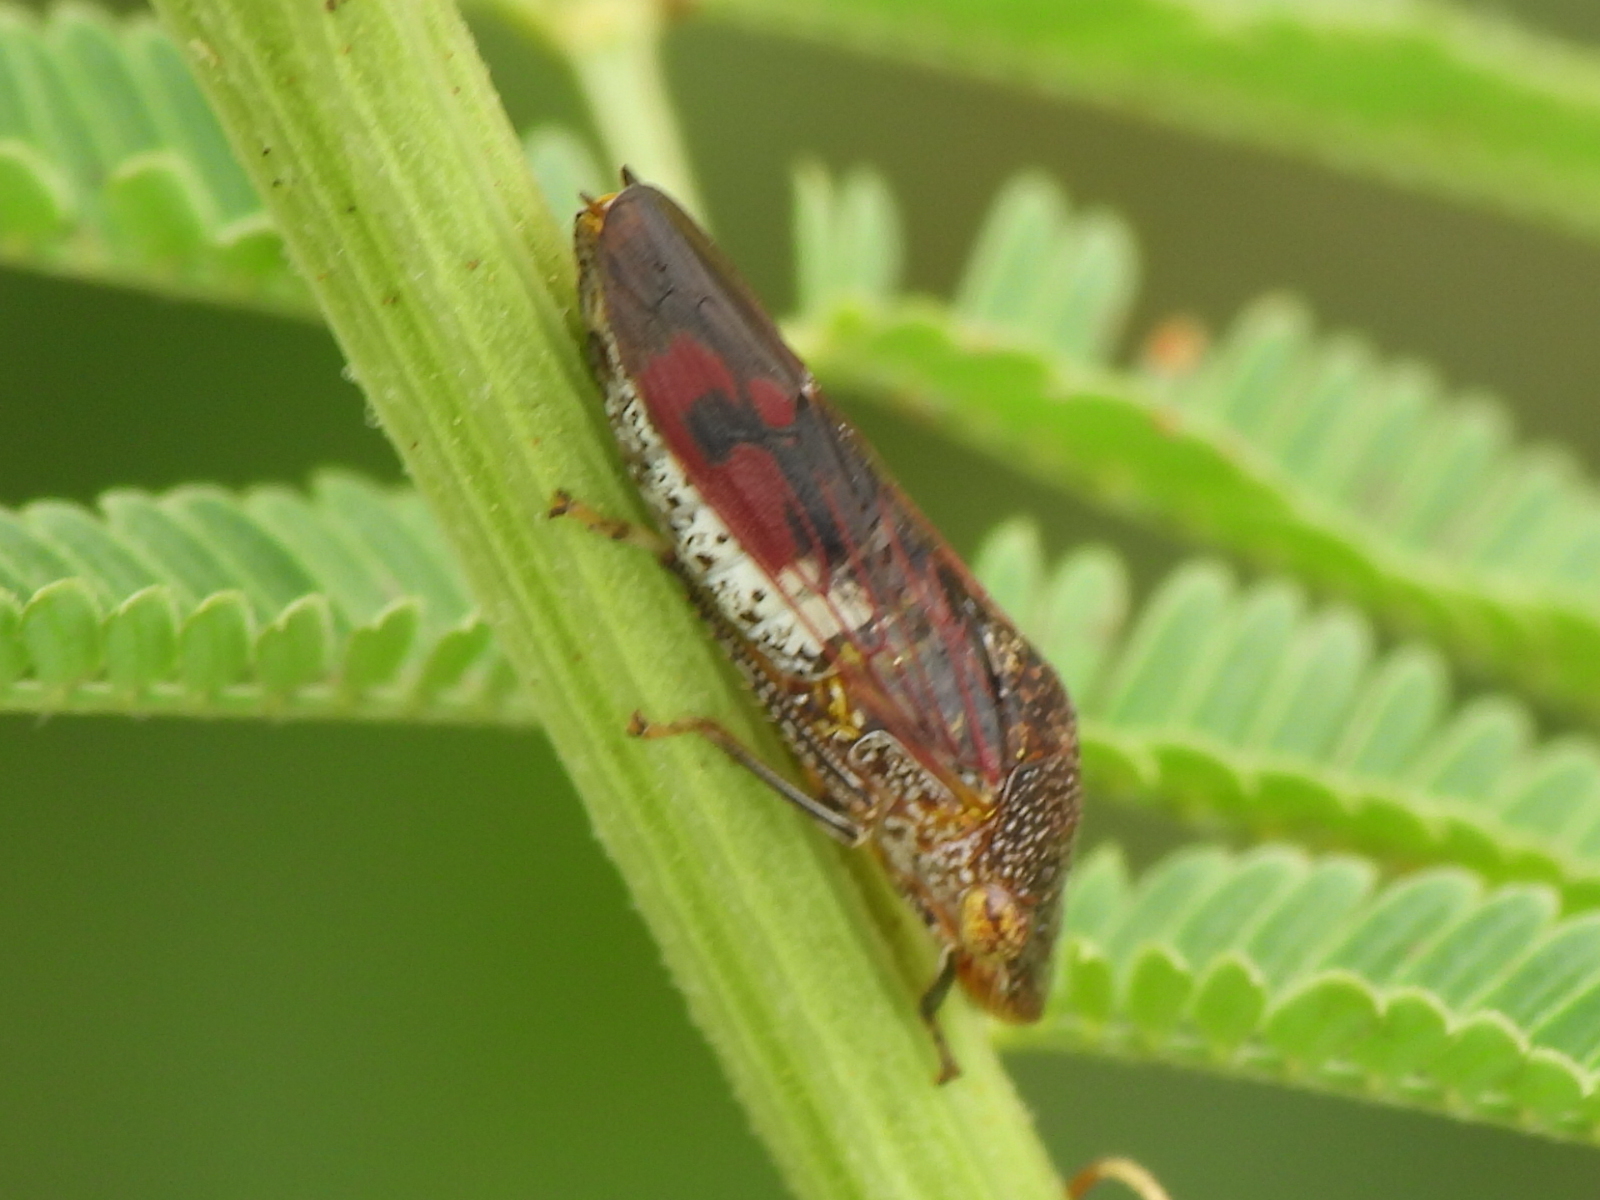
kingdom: Animalia
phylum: Arthropoda
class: Insecta
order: Hemiptera
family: Cicadellidae
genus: Homalodisca
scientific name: Homalodisca vitripennis
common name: Glassy-winged sharpshooter
